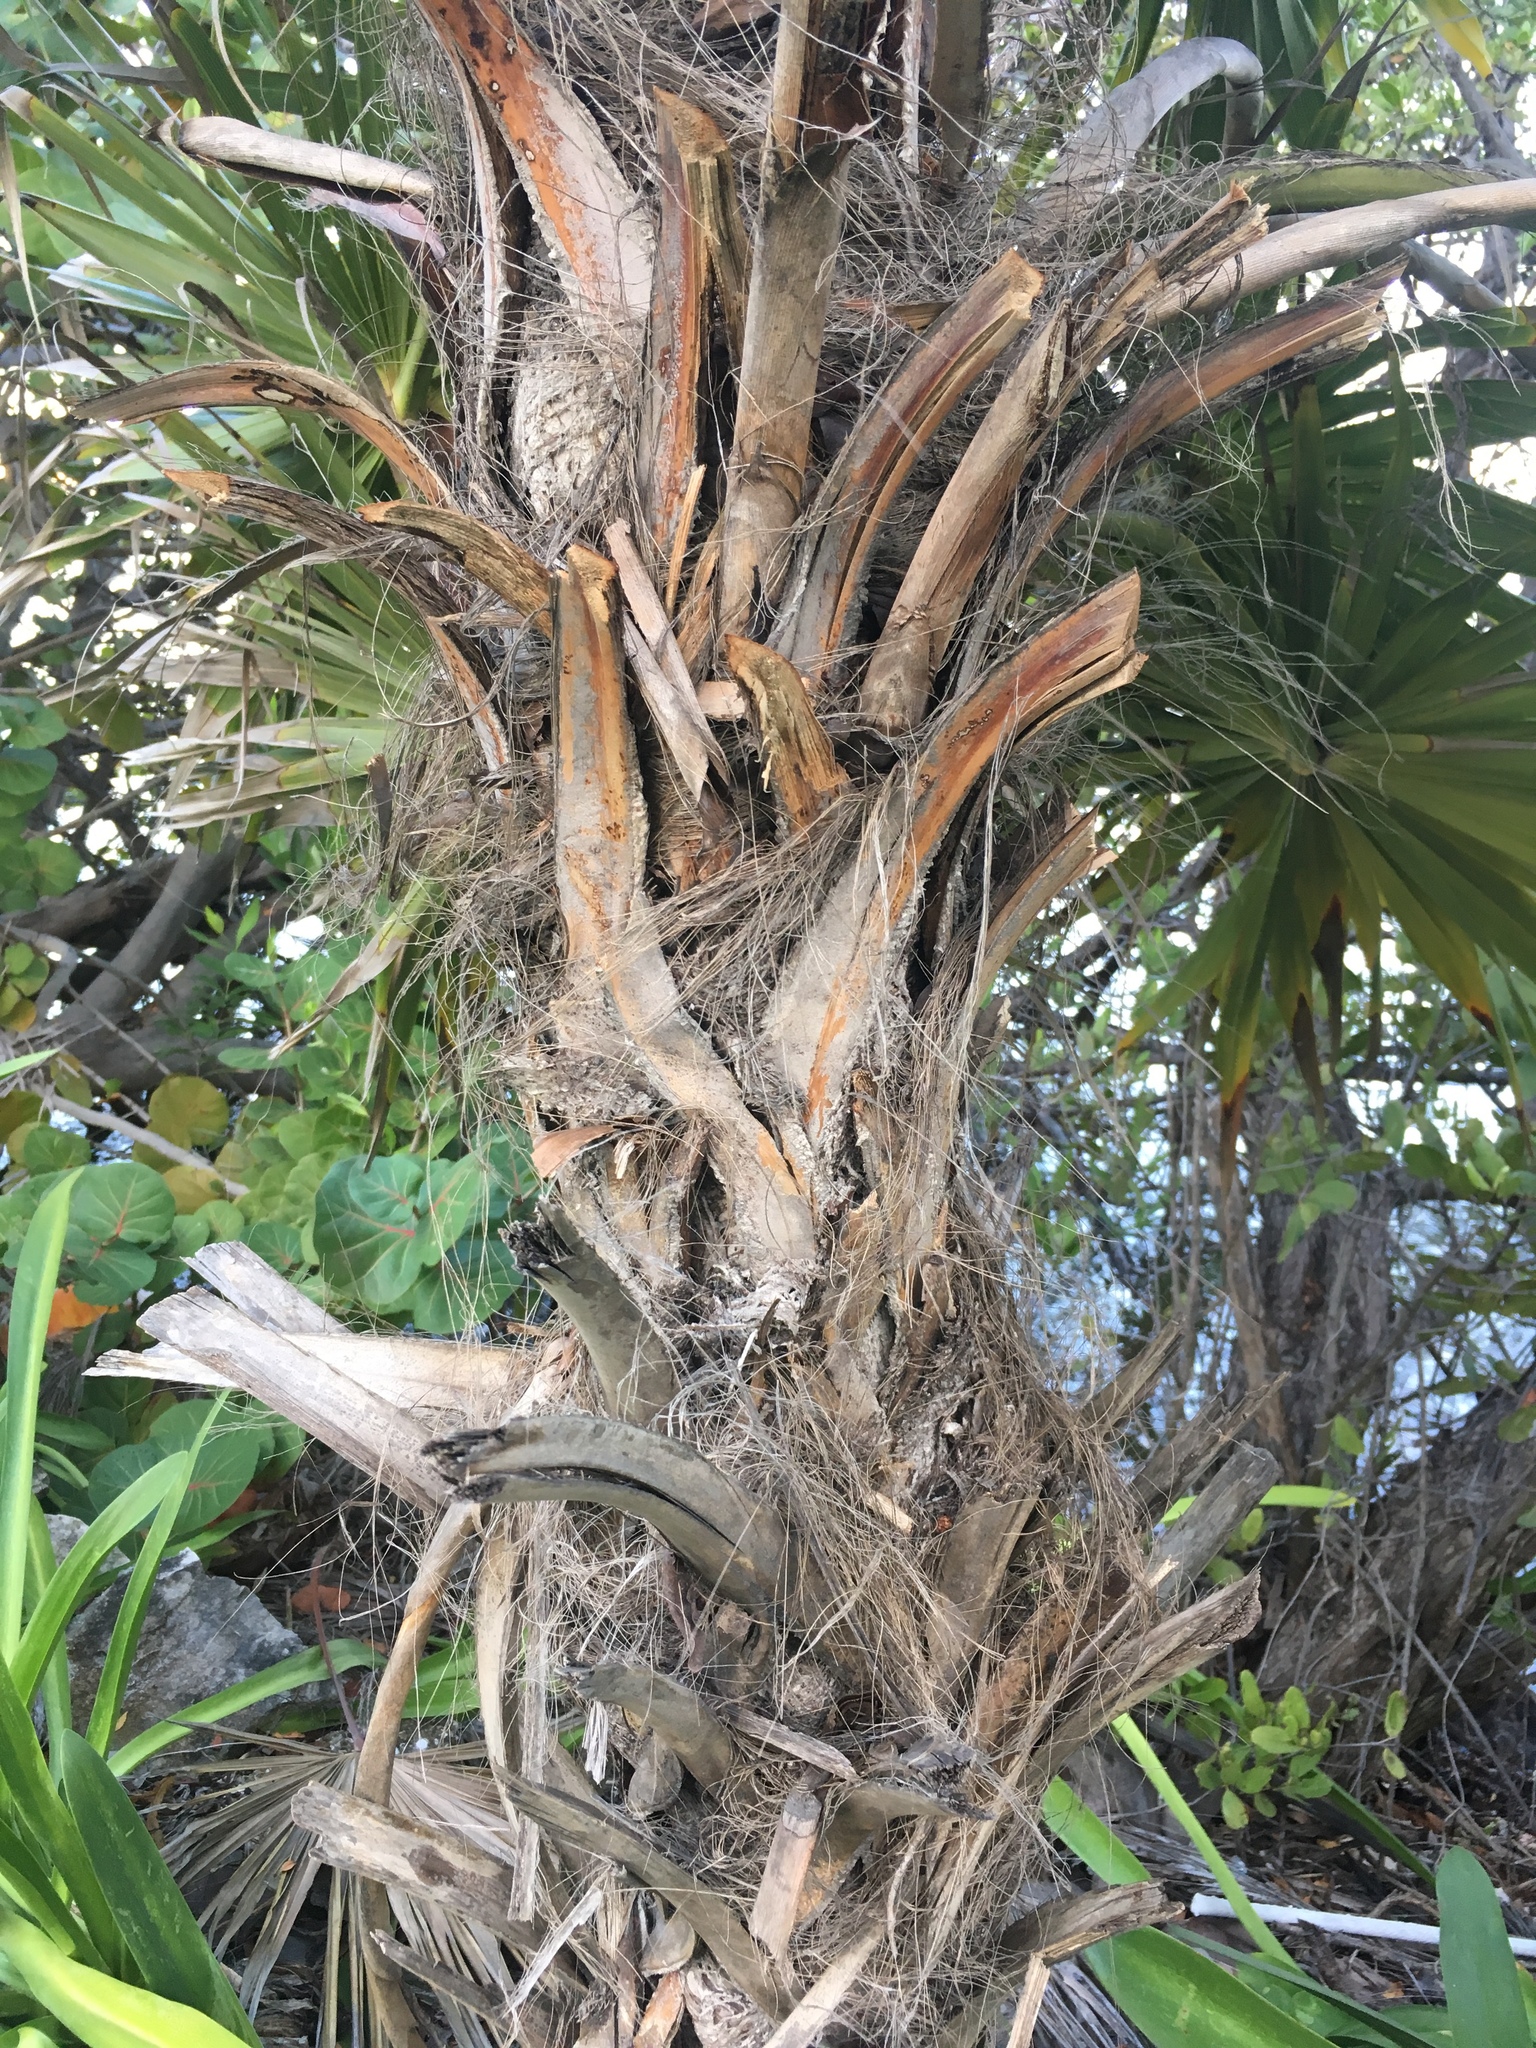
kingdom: Plantae
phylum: Tracheophyta
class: Liliopsida
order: Arecales
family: Arecaceae
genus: Thrinax
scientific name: Thrinax radiata
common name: Florida thatch
